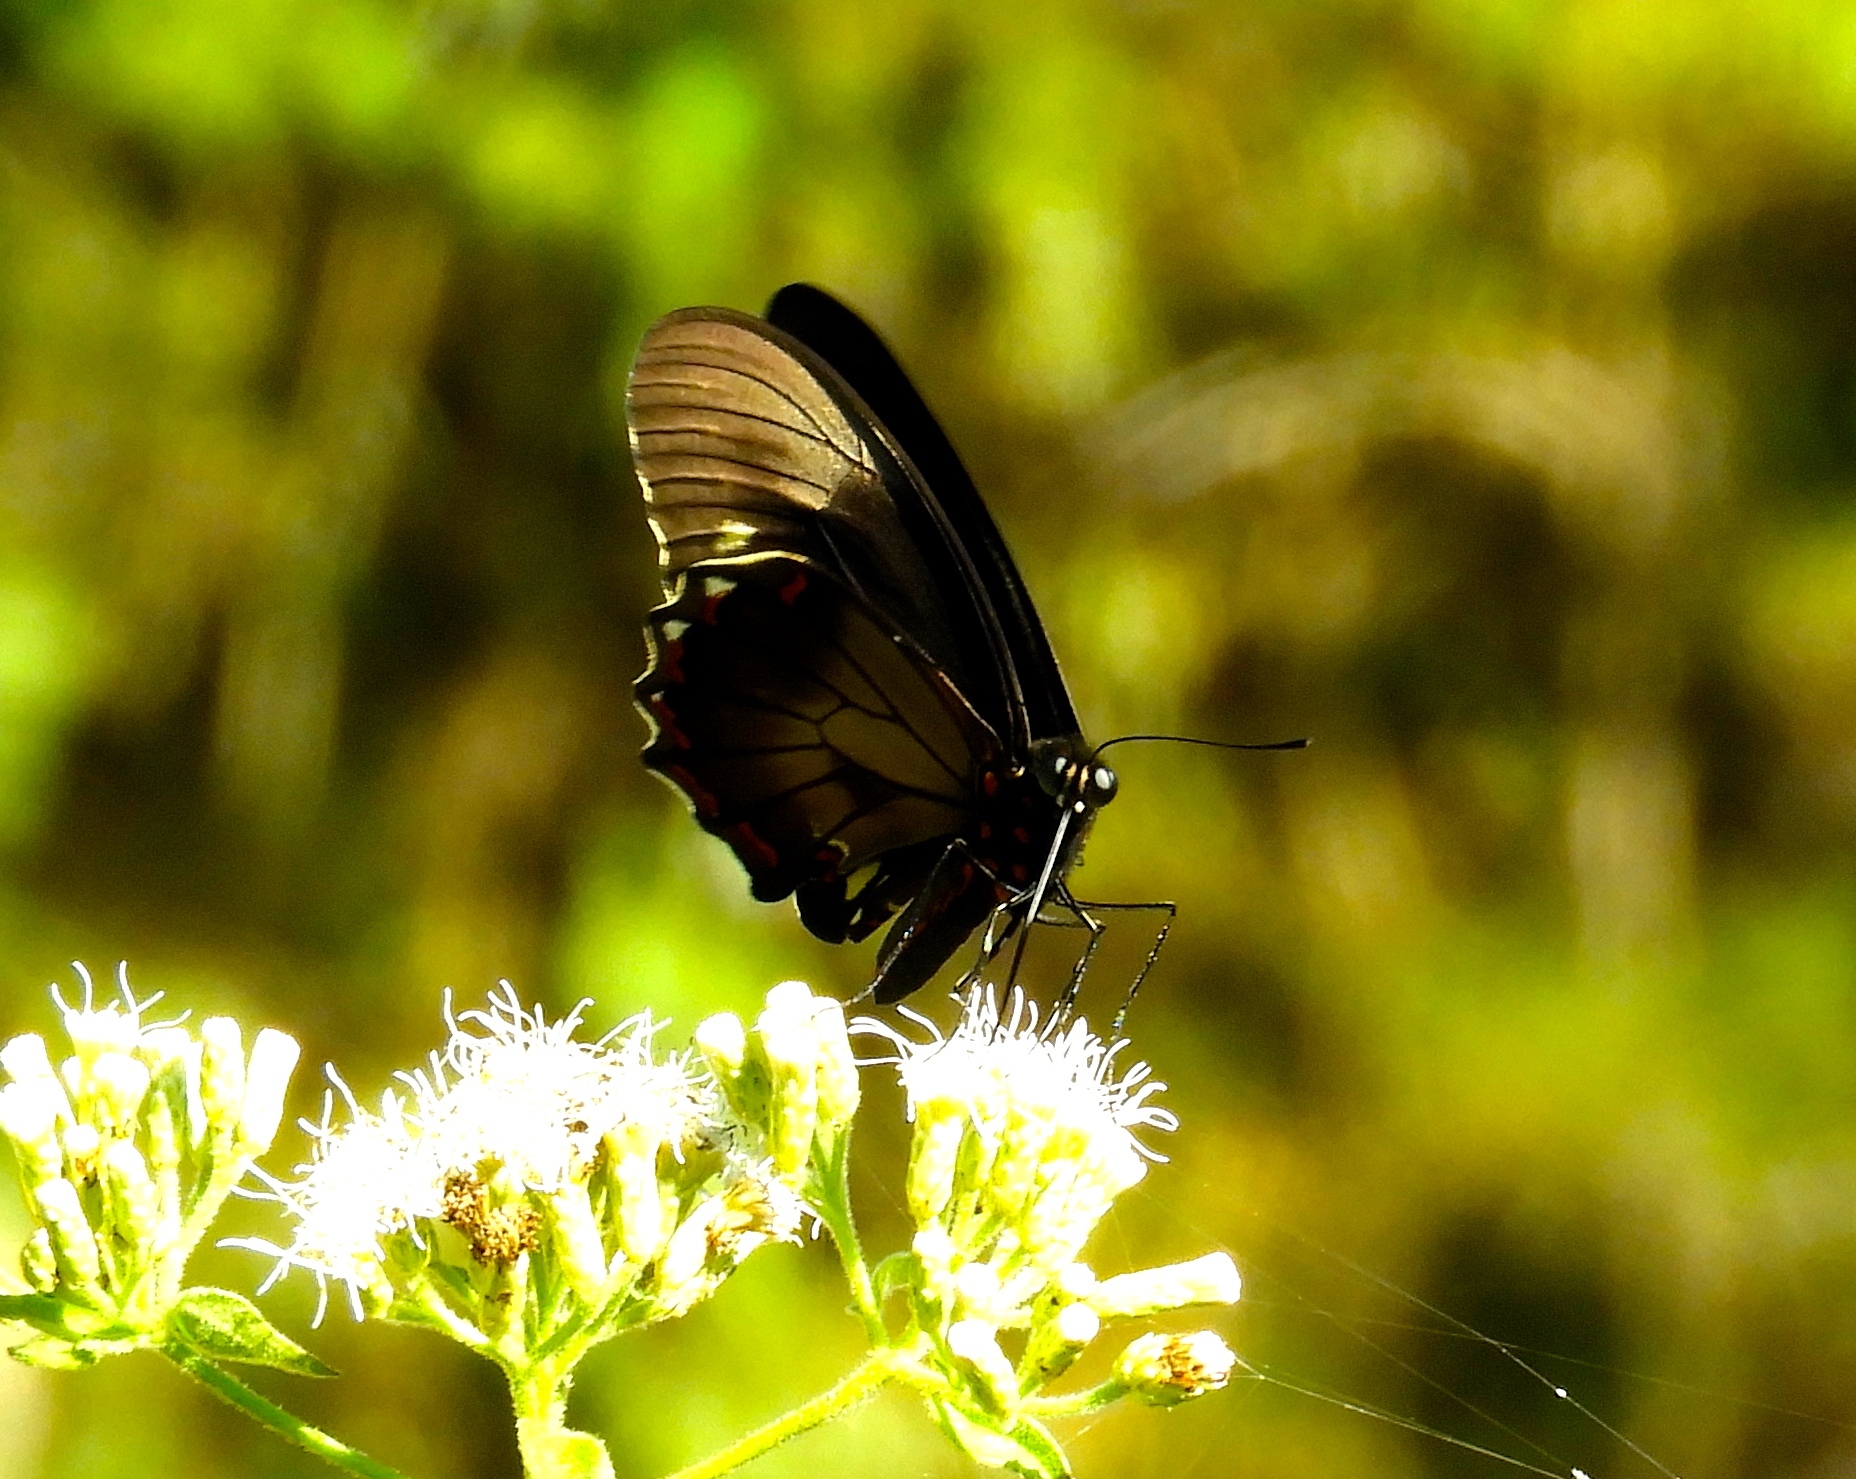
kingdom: Animalia
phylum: Arthropoda
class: Insecta
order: Lepidoptera
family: Papilionidae
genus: Battus
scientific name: Battus polydamas
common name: Polydamas swallowtail
